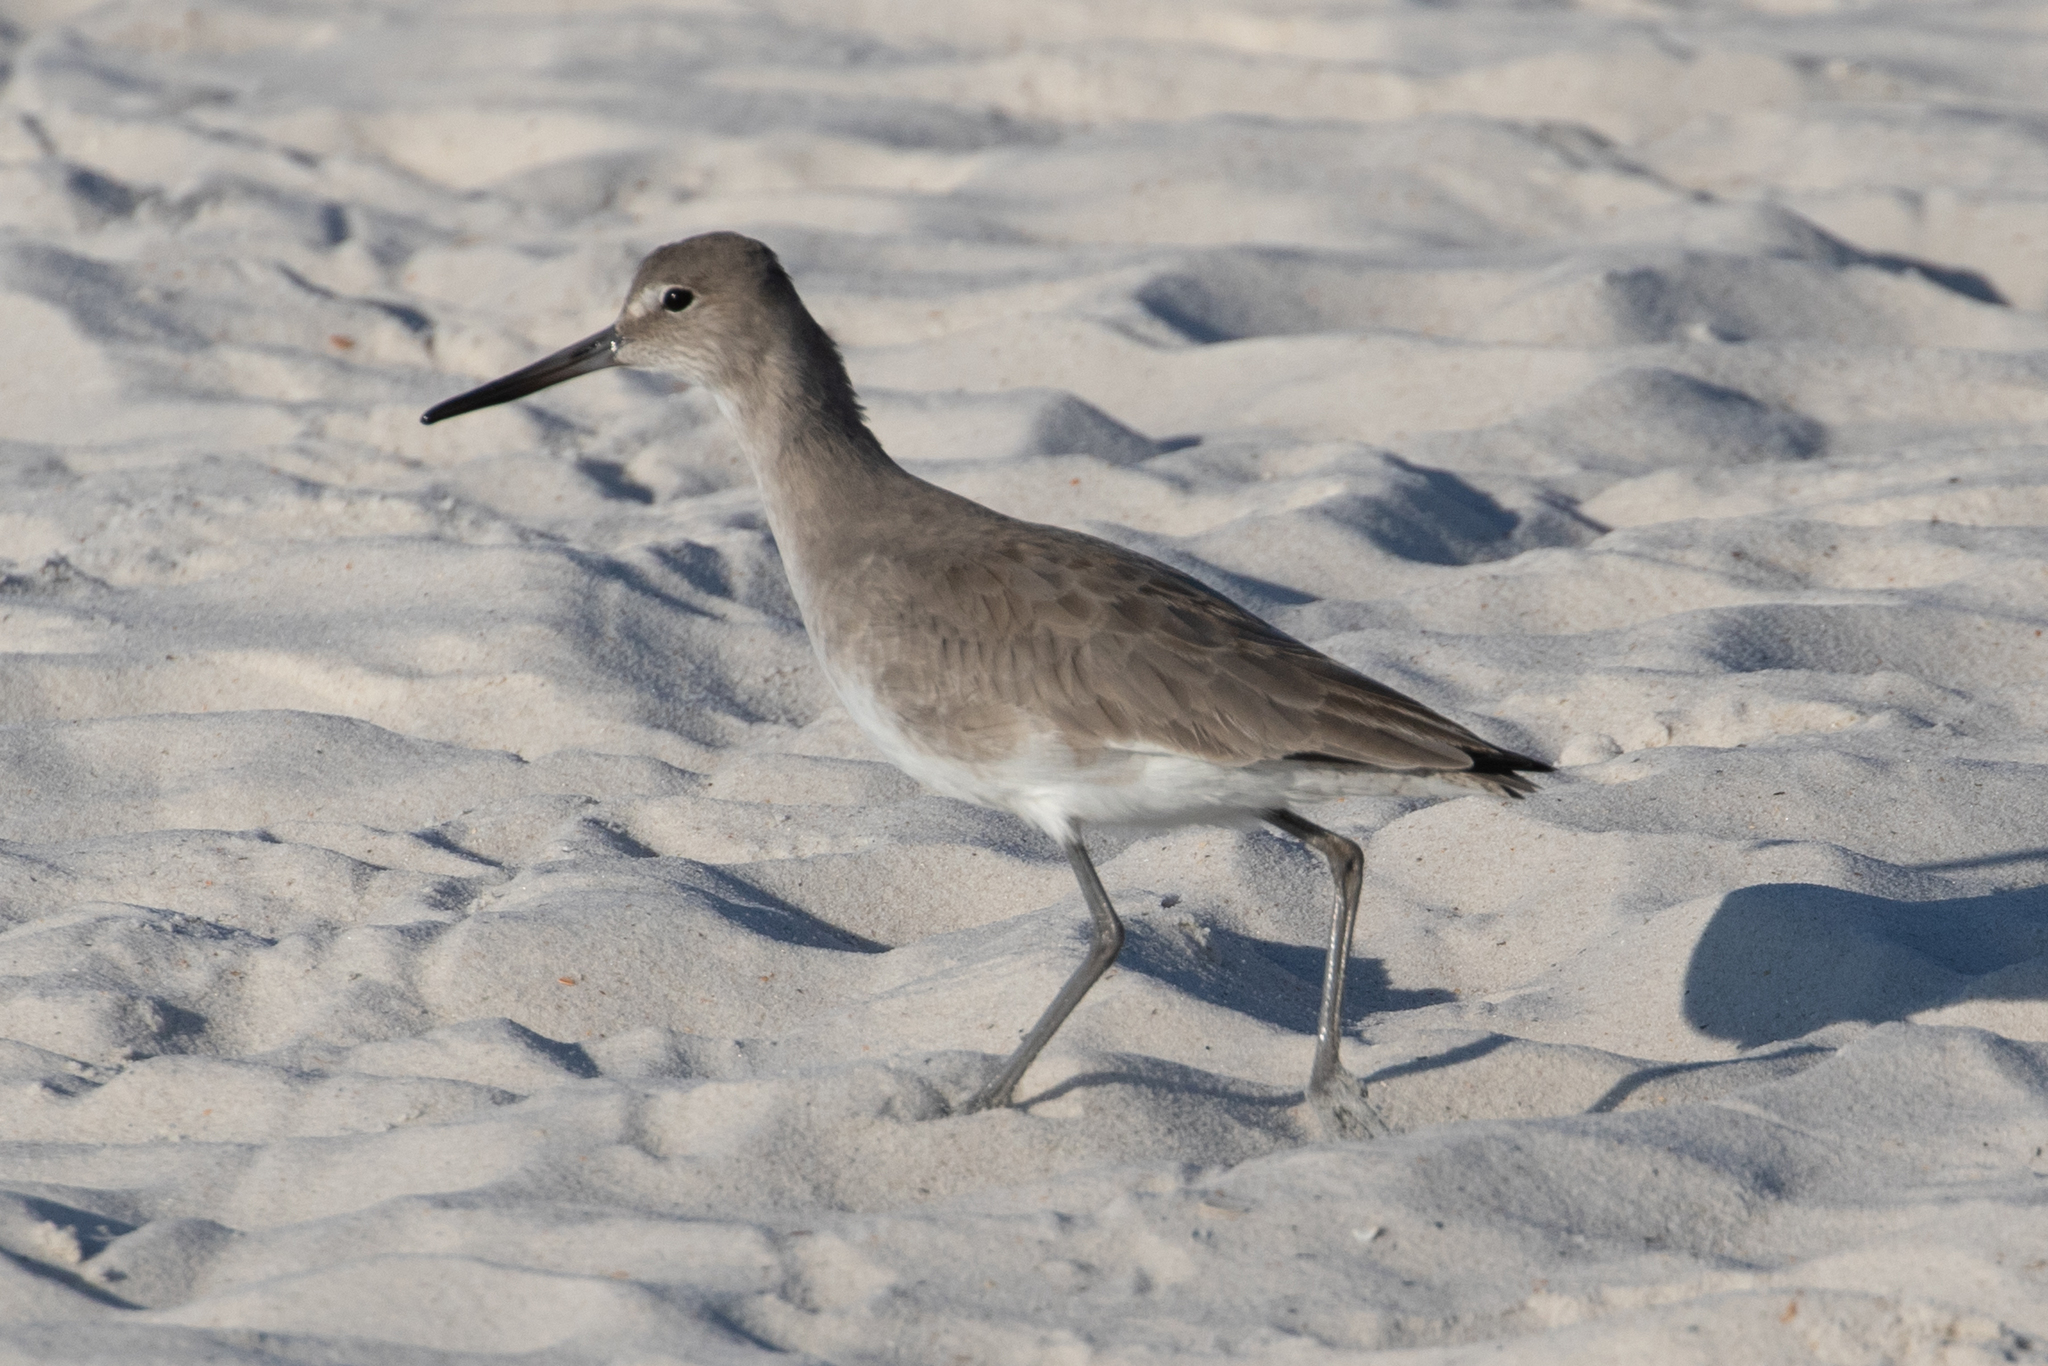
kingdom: Animalia
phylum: Chordata
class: Aves
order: Charadriiformes
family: Scolopacidae
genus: Tringa
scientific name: Tringa semipalmata
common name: Willet
